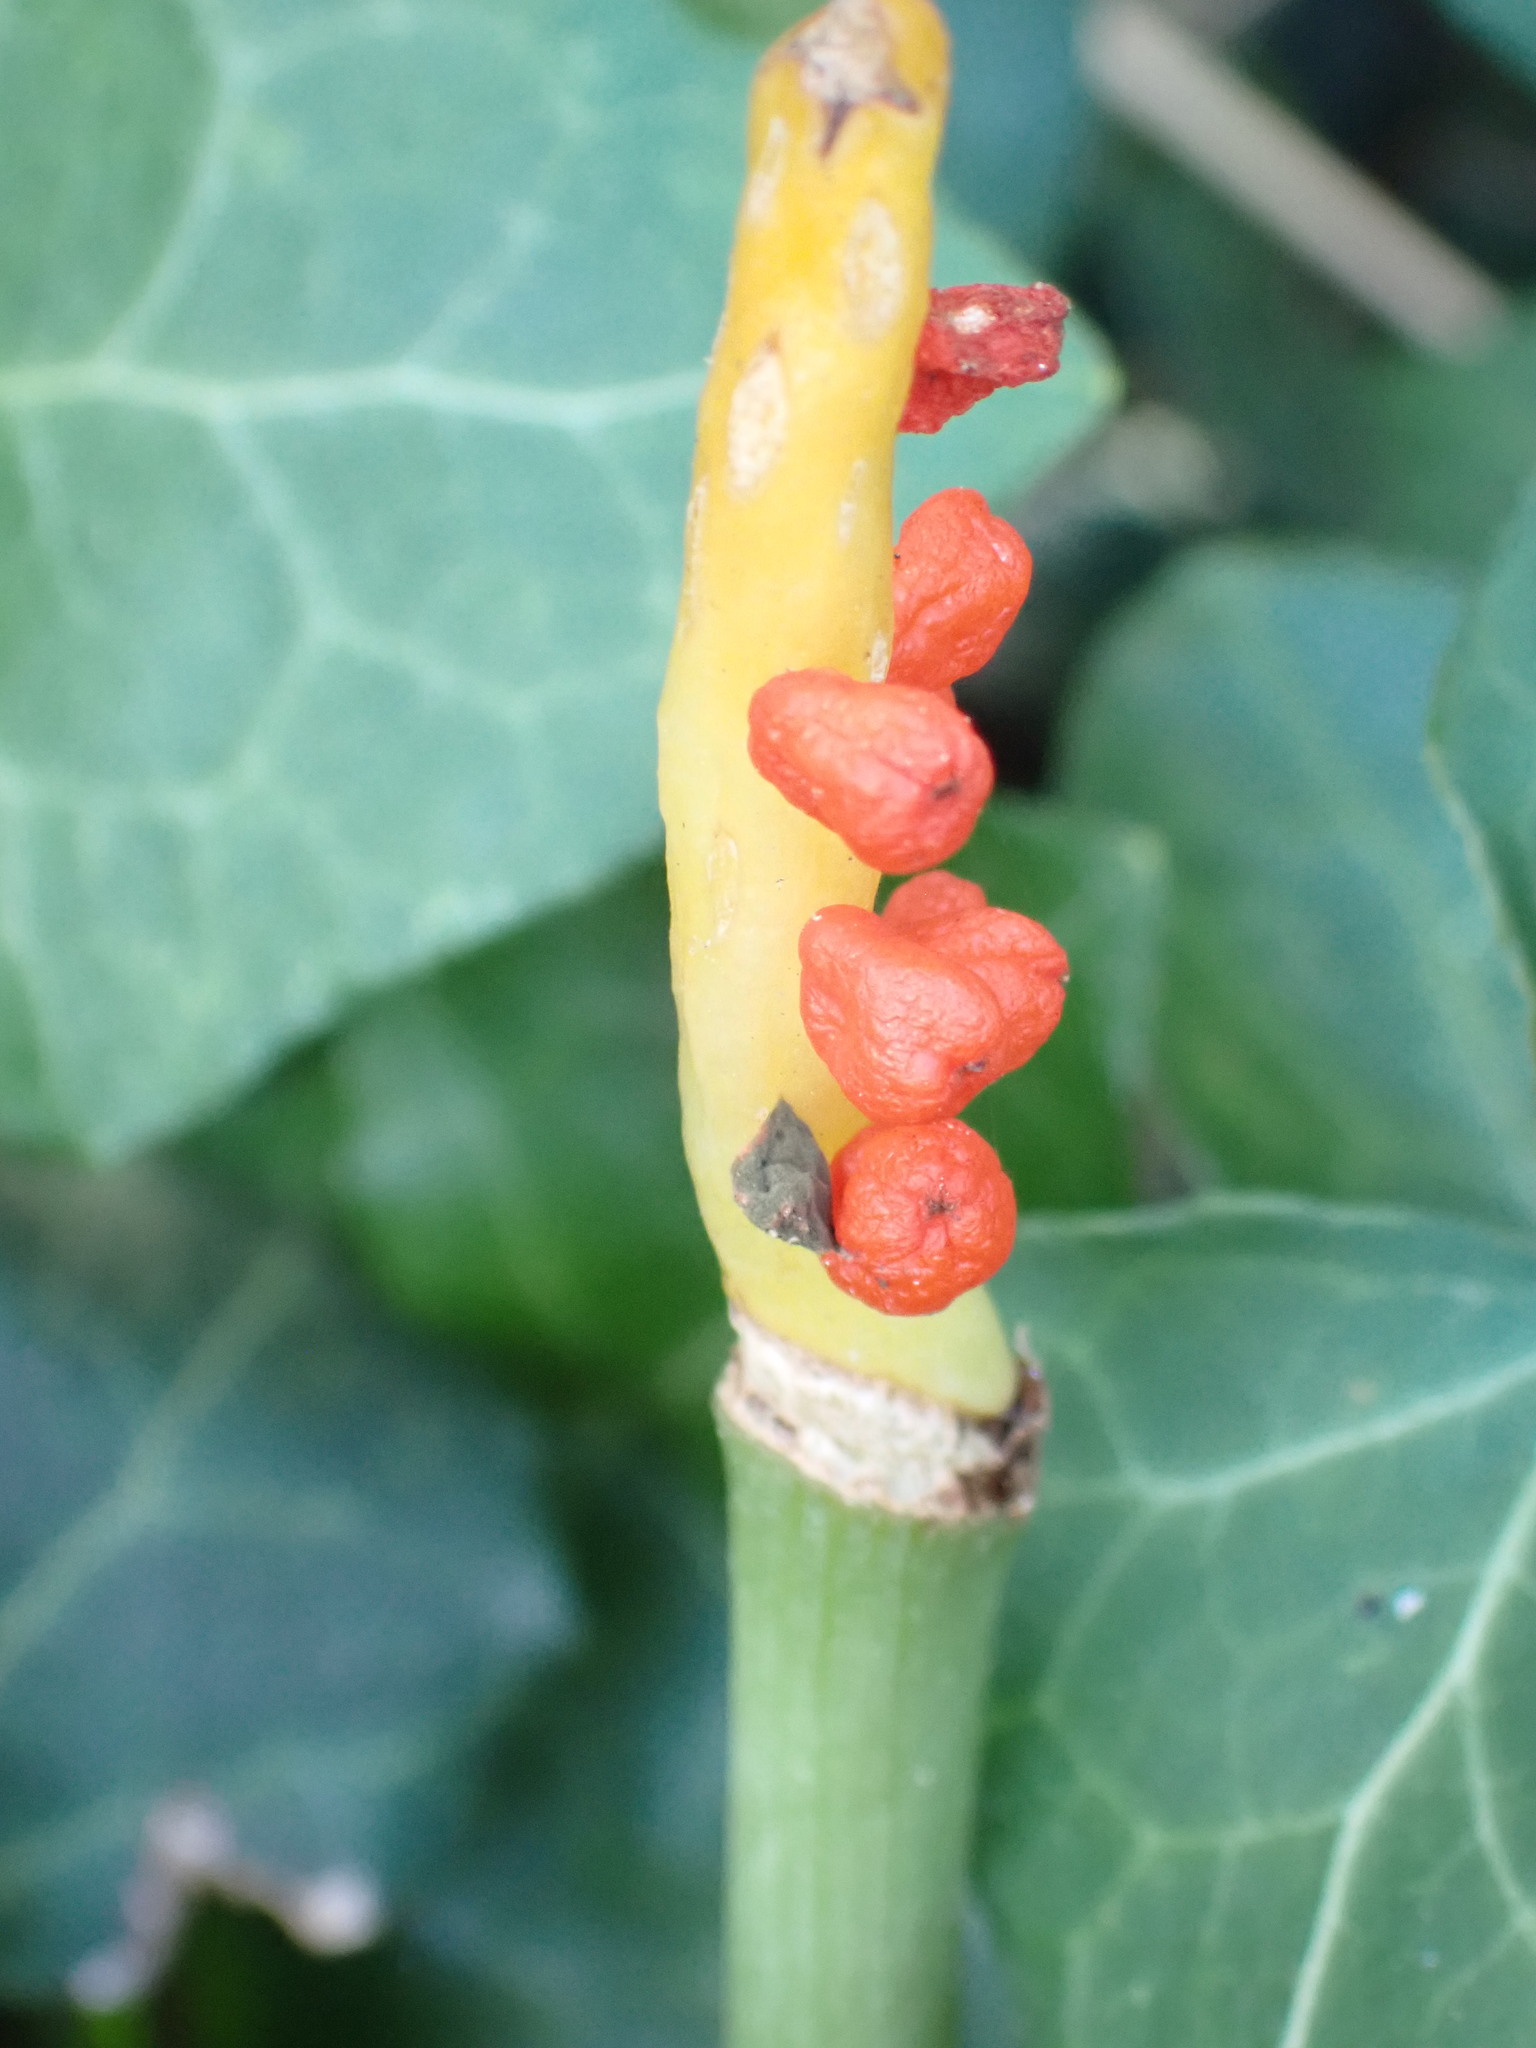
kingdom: Plantae
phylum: Tracheophyta
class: Liliopsida
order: Alismatales
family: Araceae
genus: Arum
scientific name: Arum maculatum
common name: Lords-and-ladies
